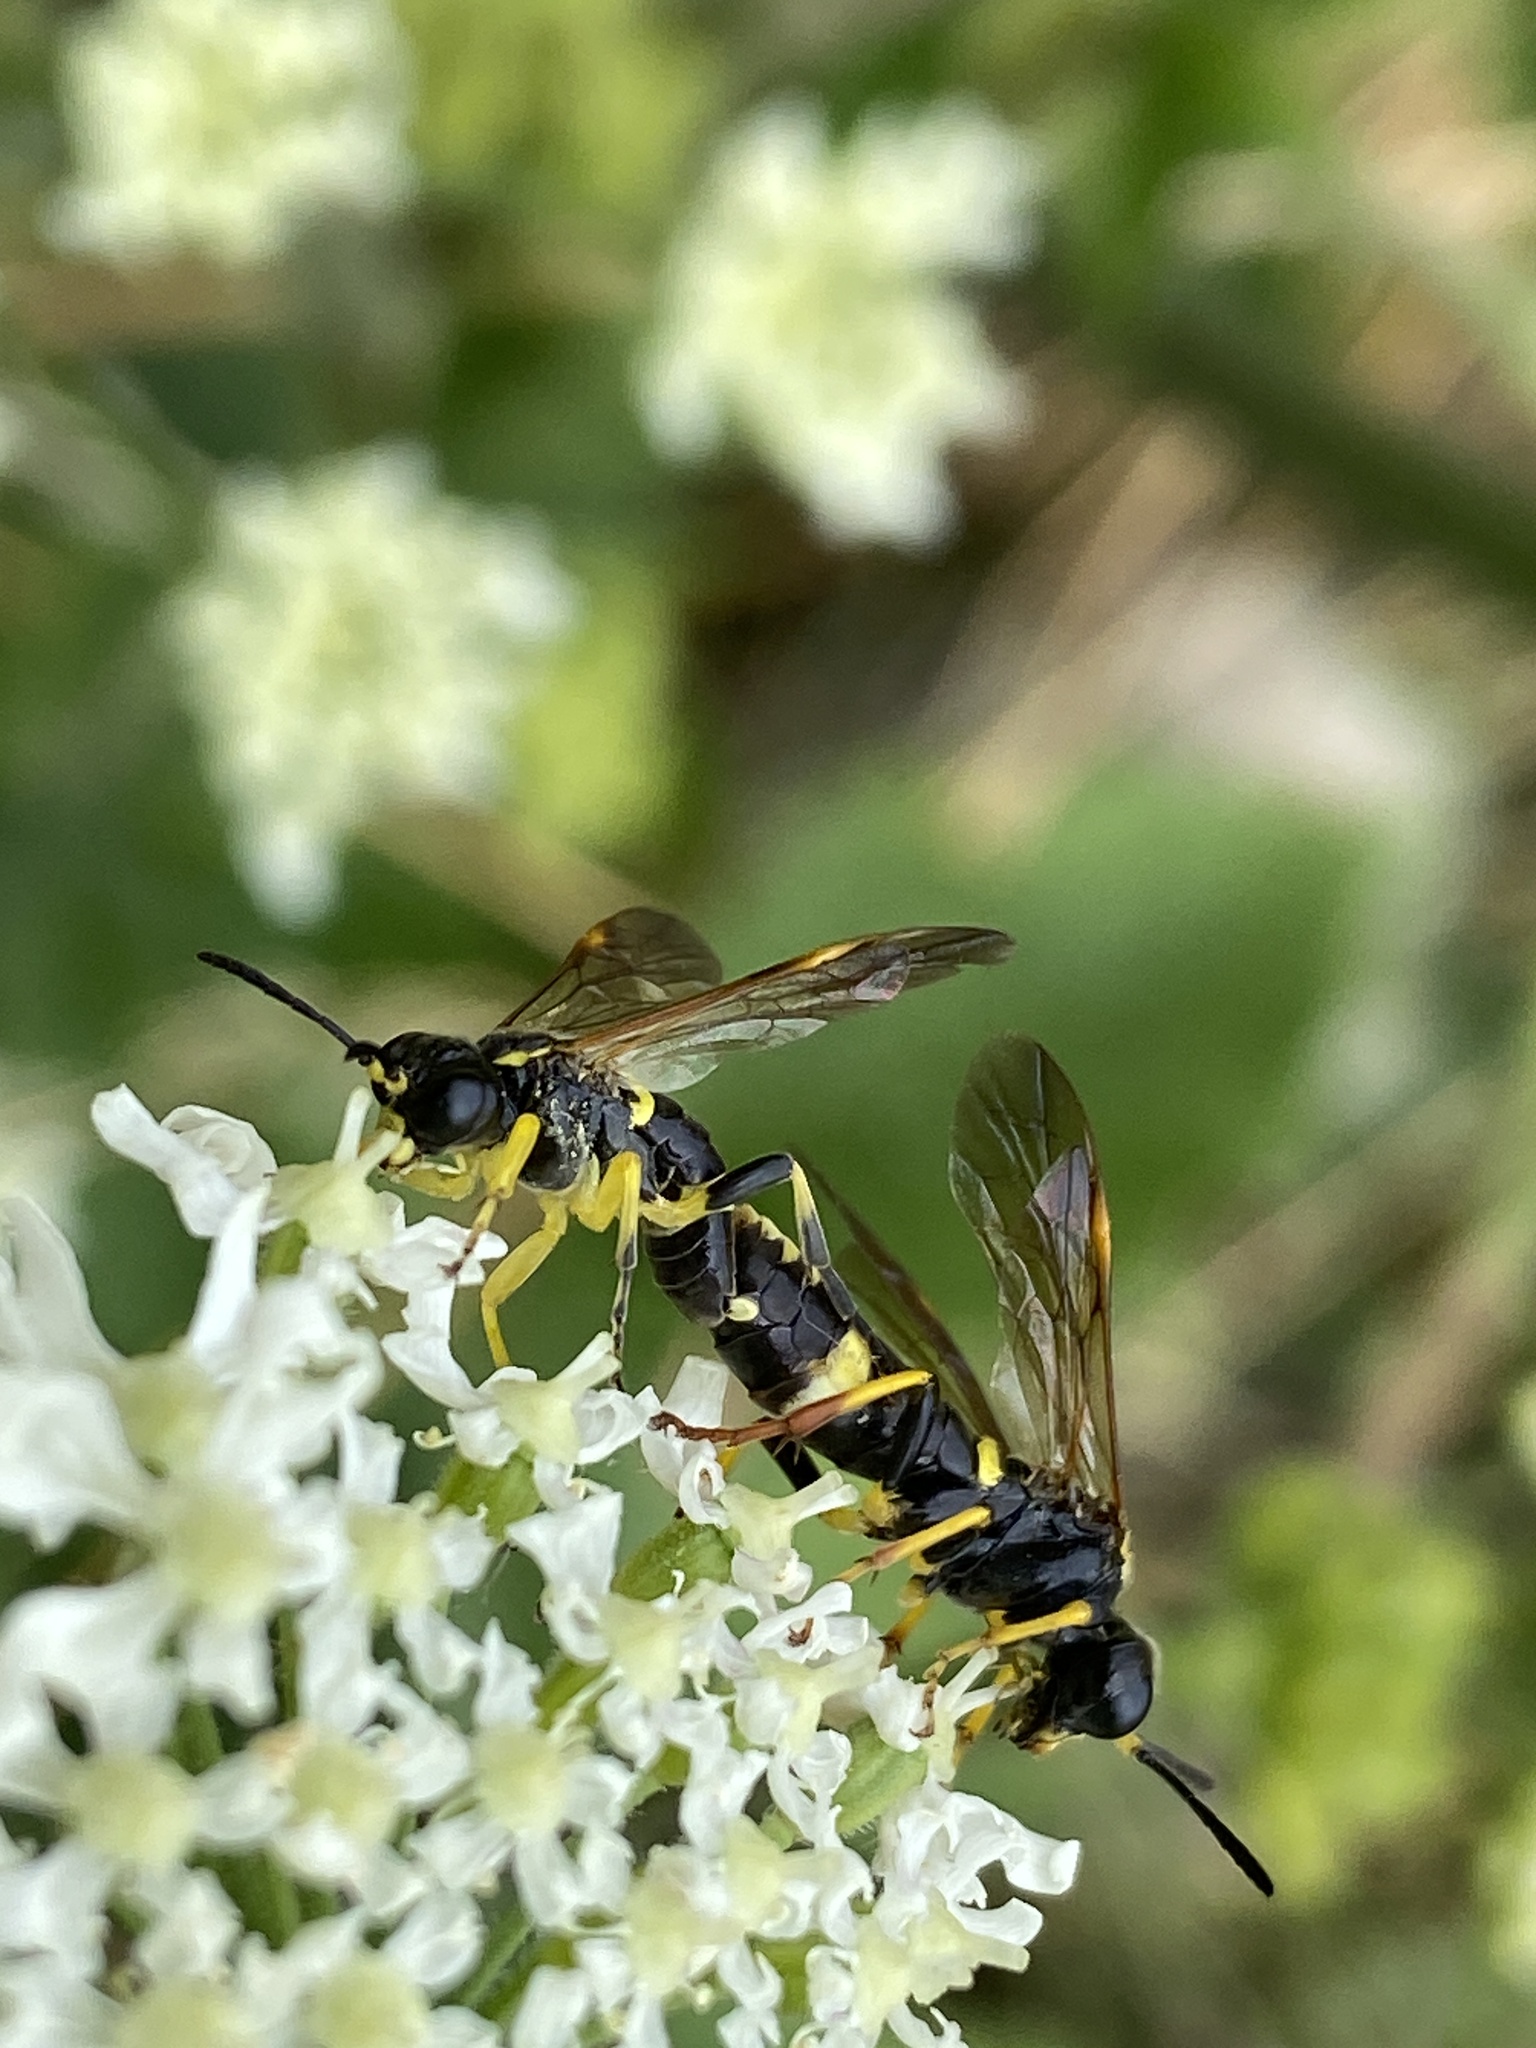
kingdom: Animalia
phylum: Arthropoda
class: Insecta
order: Hymenoptera
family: Tenthredinidae
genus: Tenthredo
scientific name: Tenthredo amoena
